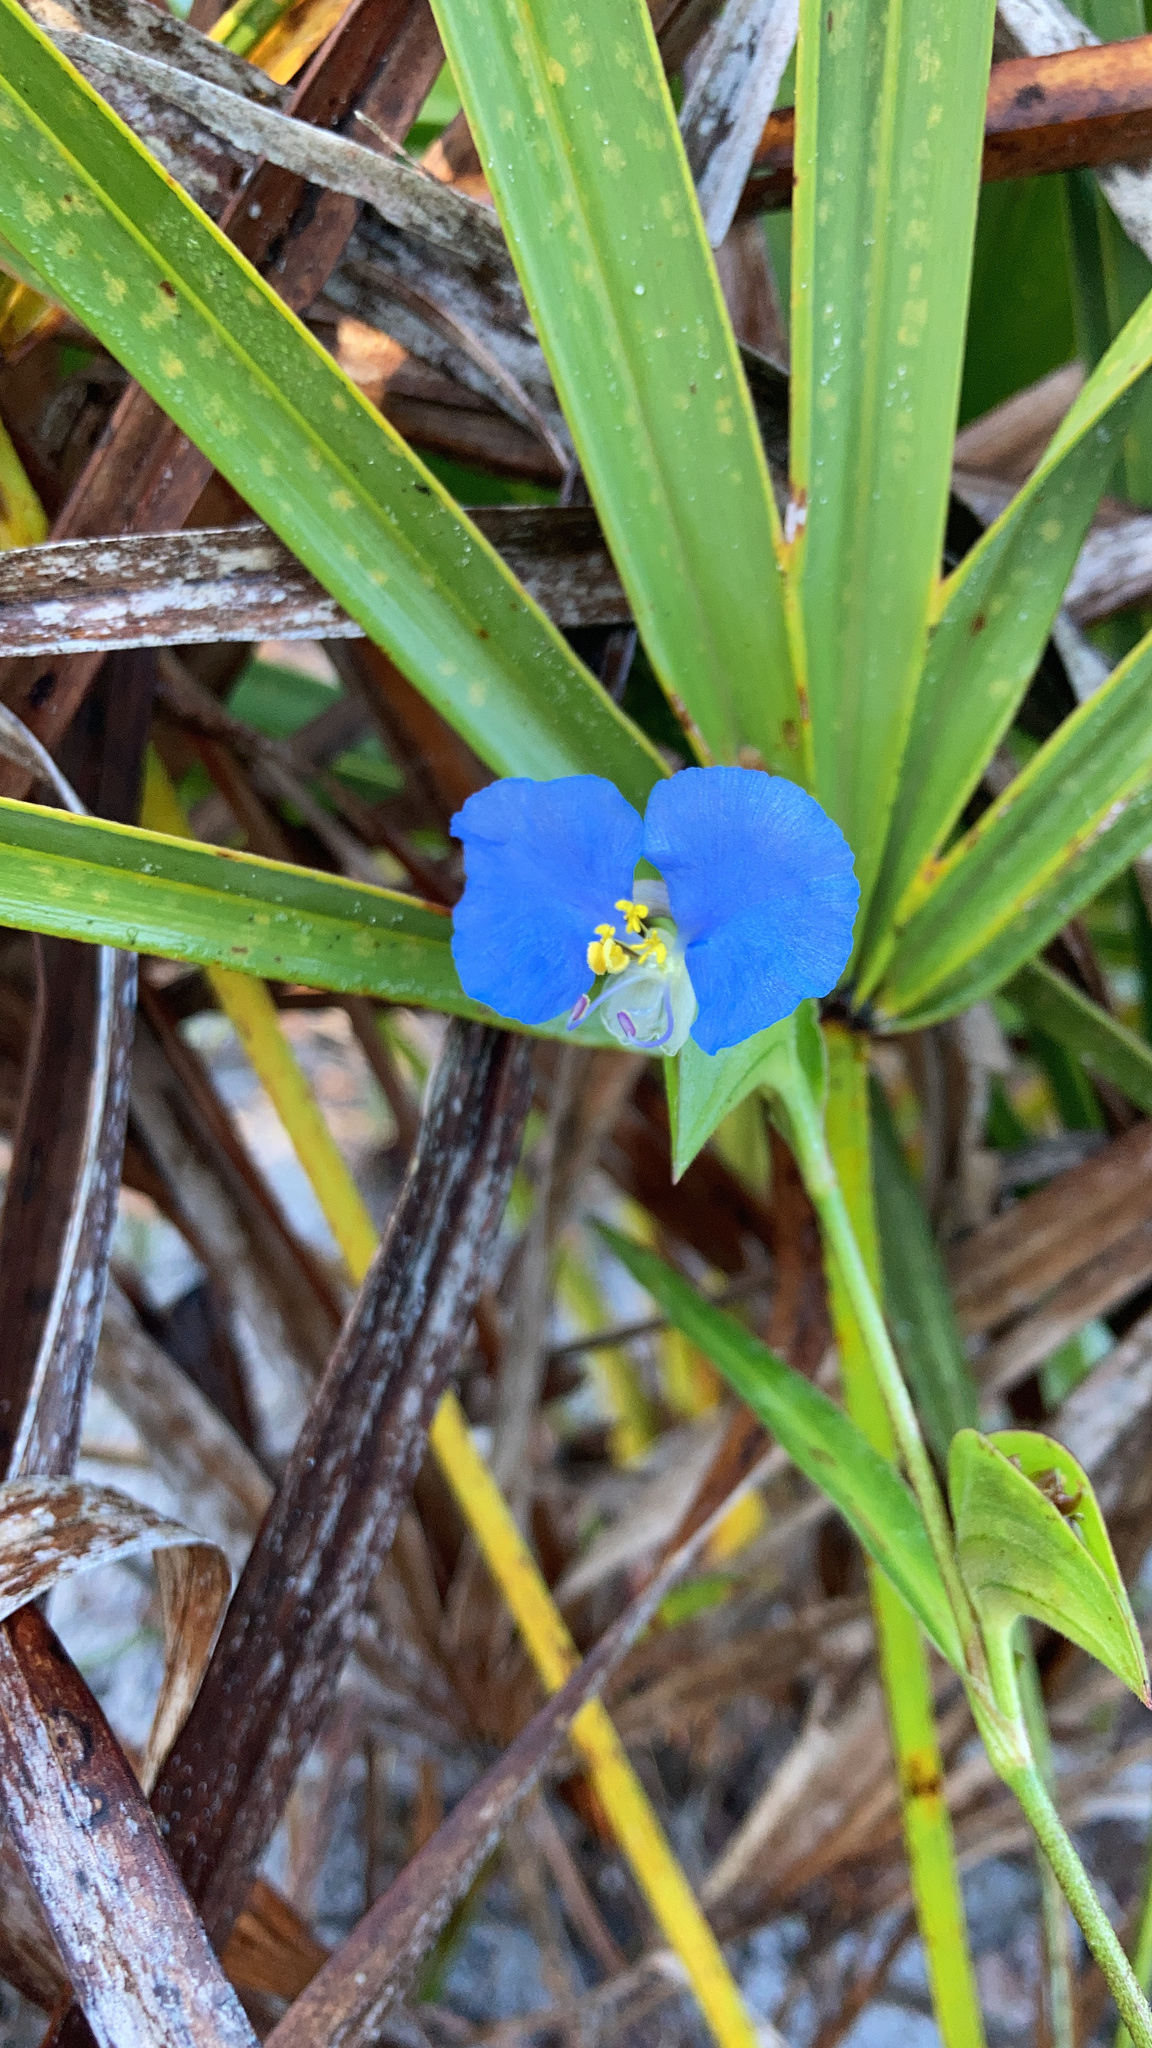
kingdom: Plantae
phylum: Tracheophyta
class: Liliopsida
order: Commelinales
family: Commelinaceae
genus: Commelina
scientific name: Commelina erecta
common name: Blousel blommetjie
